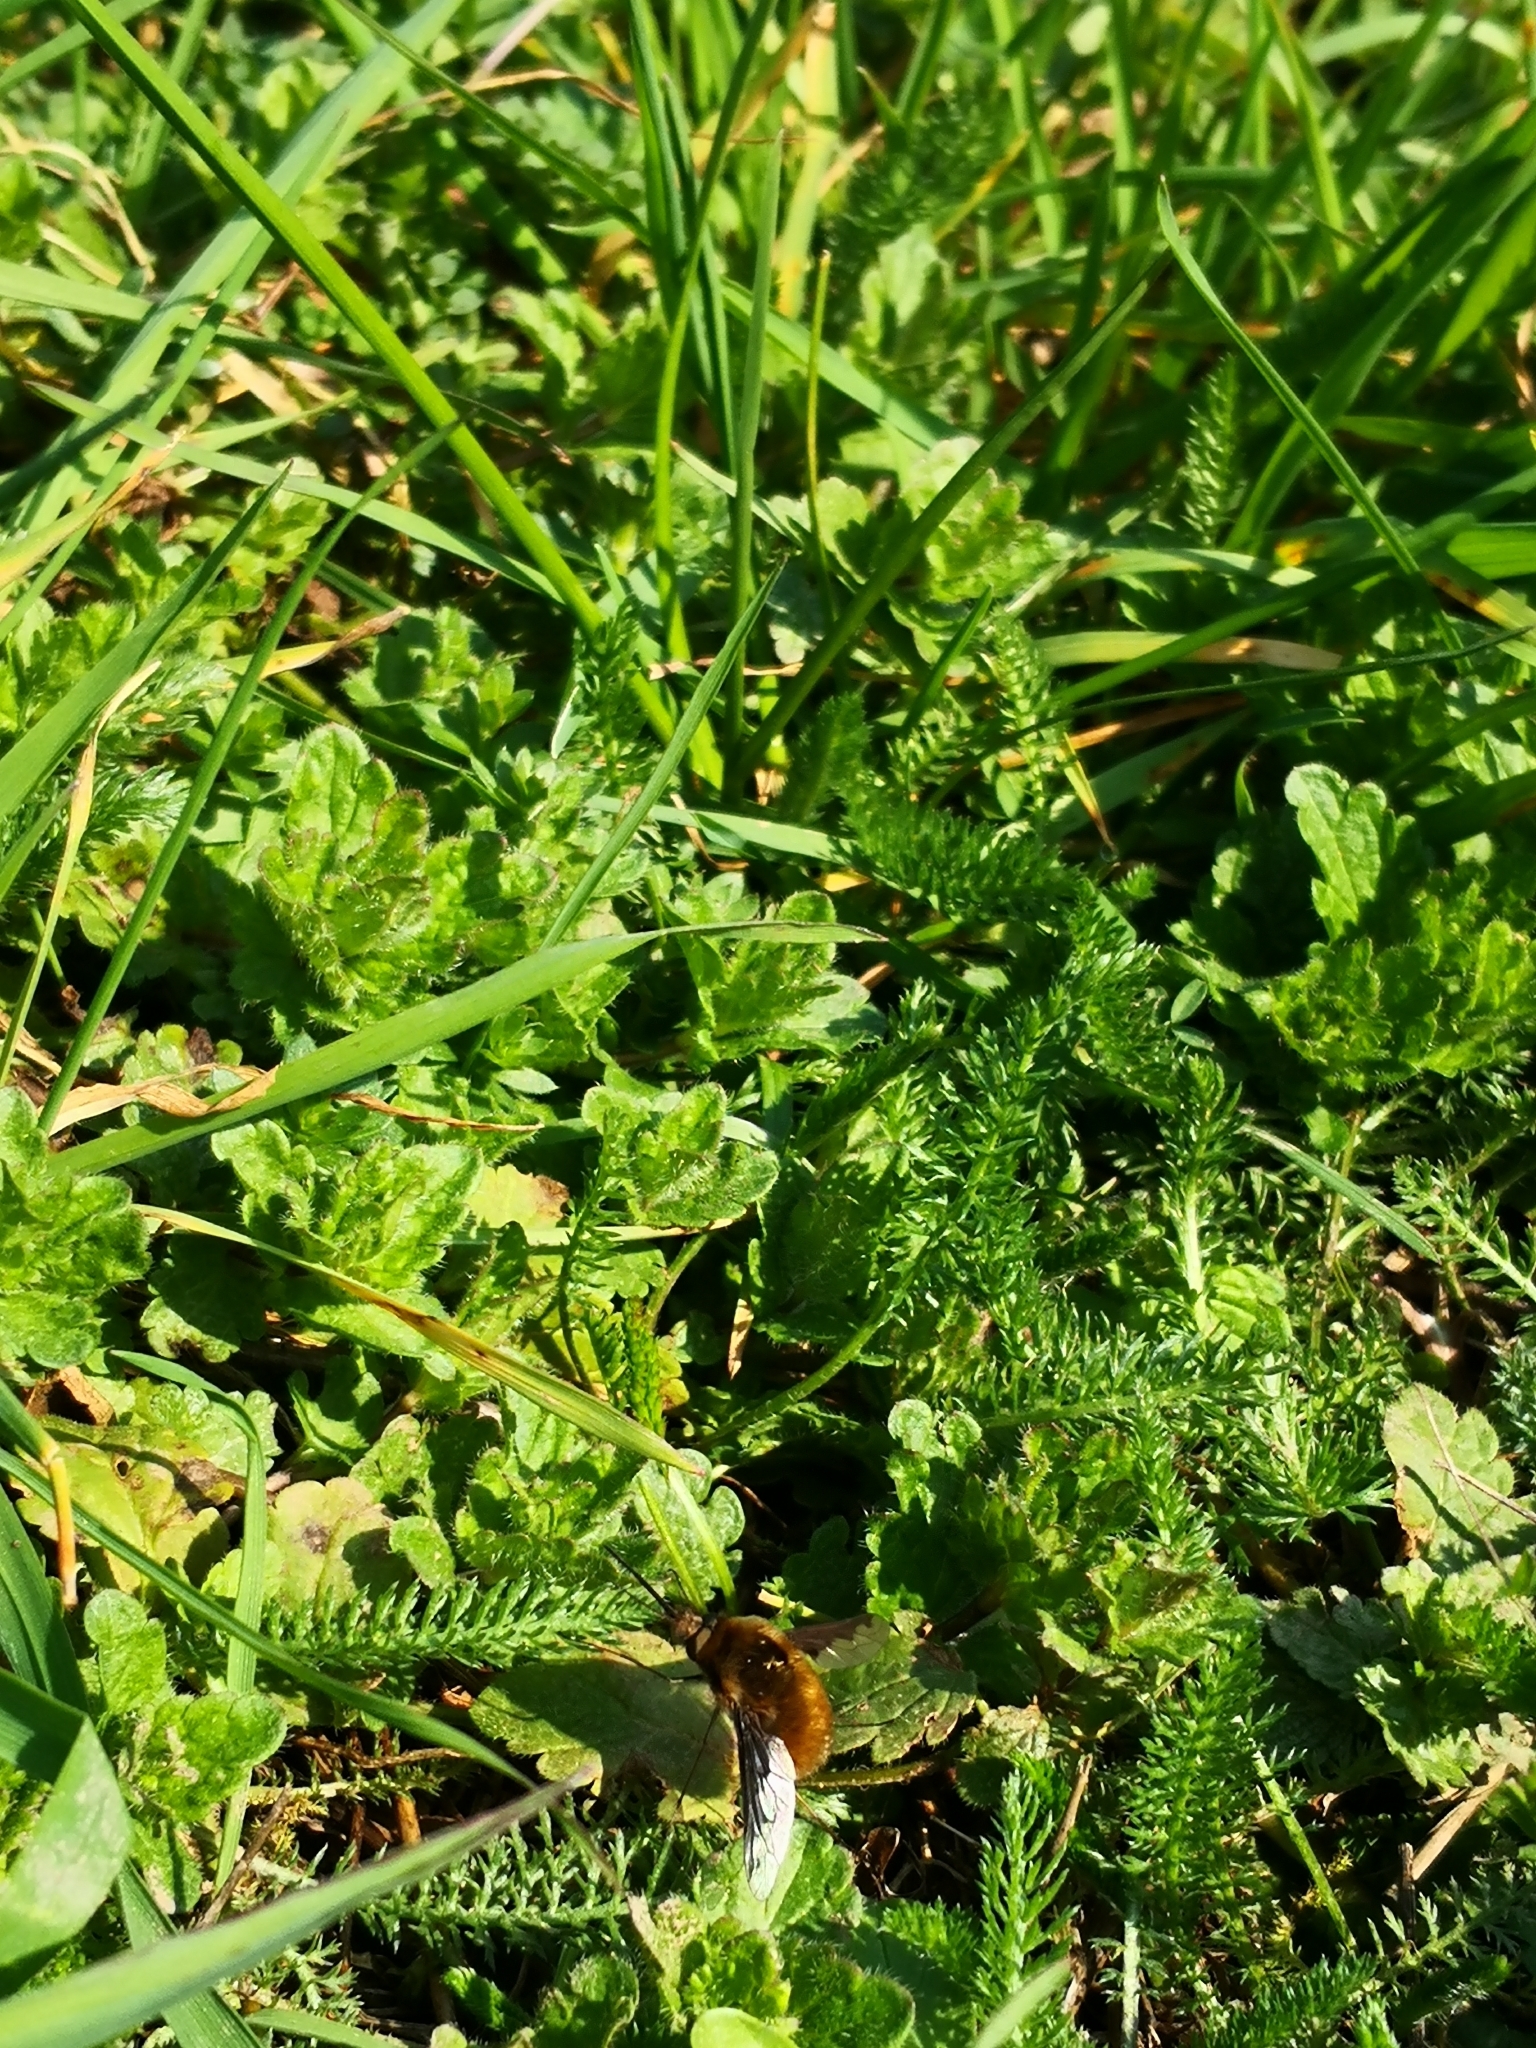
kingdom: Animalia
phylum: Arthropoda
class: Insecta
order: Diptera
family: Bombyliidae
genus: Bombylius
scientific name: Bombylius major
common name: Bee fly
